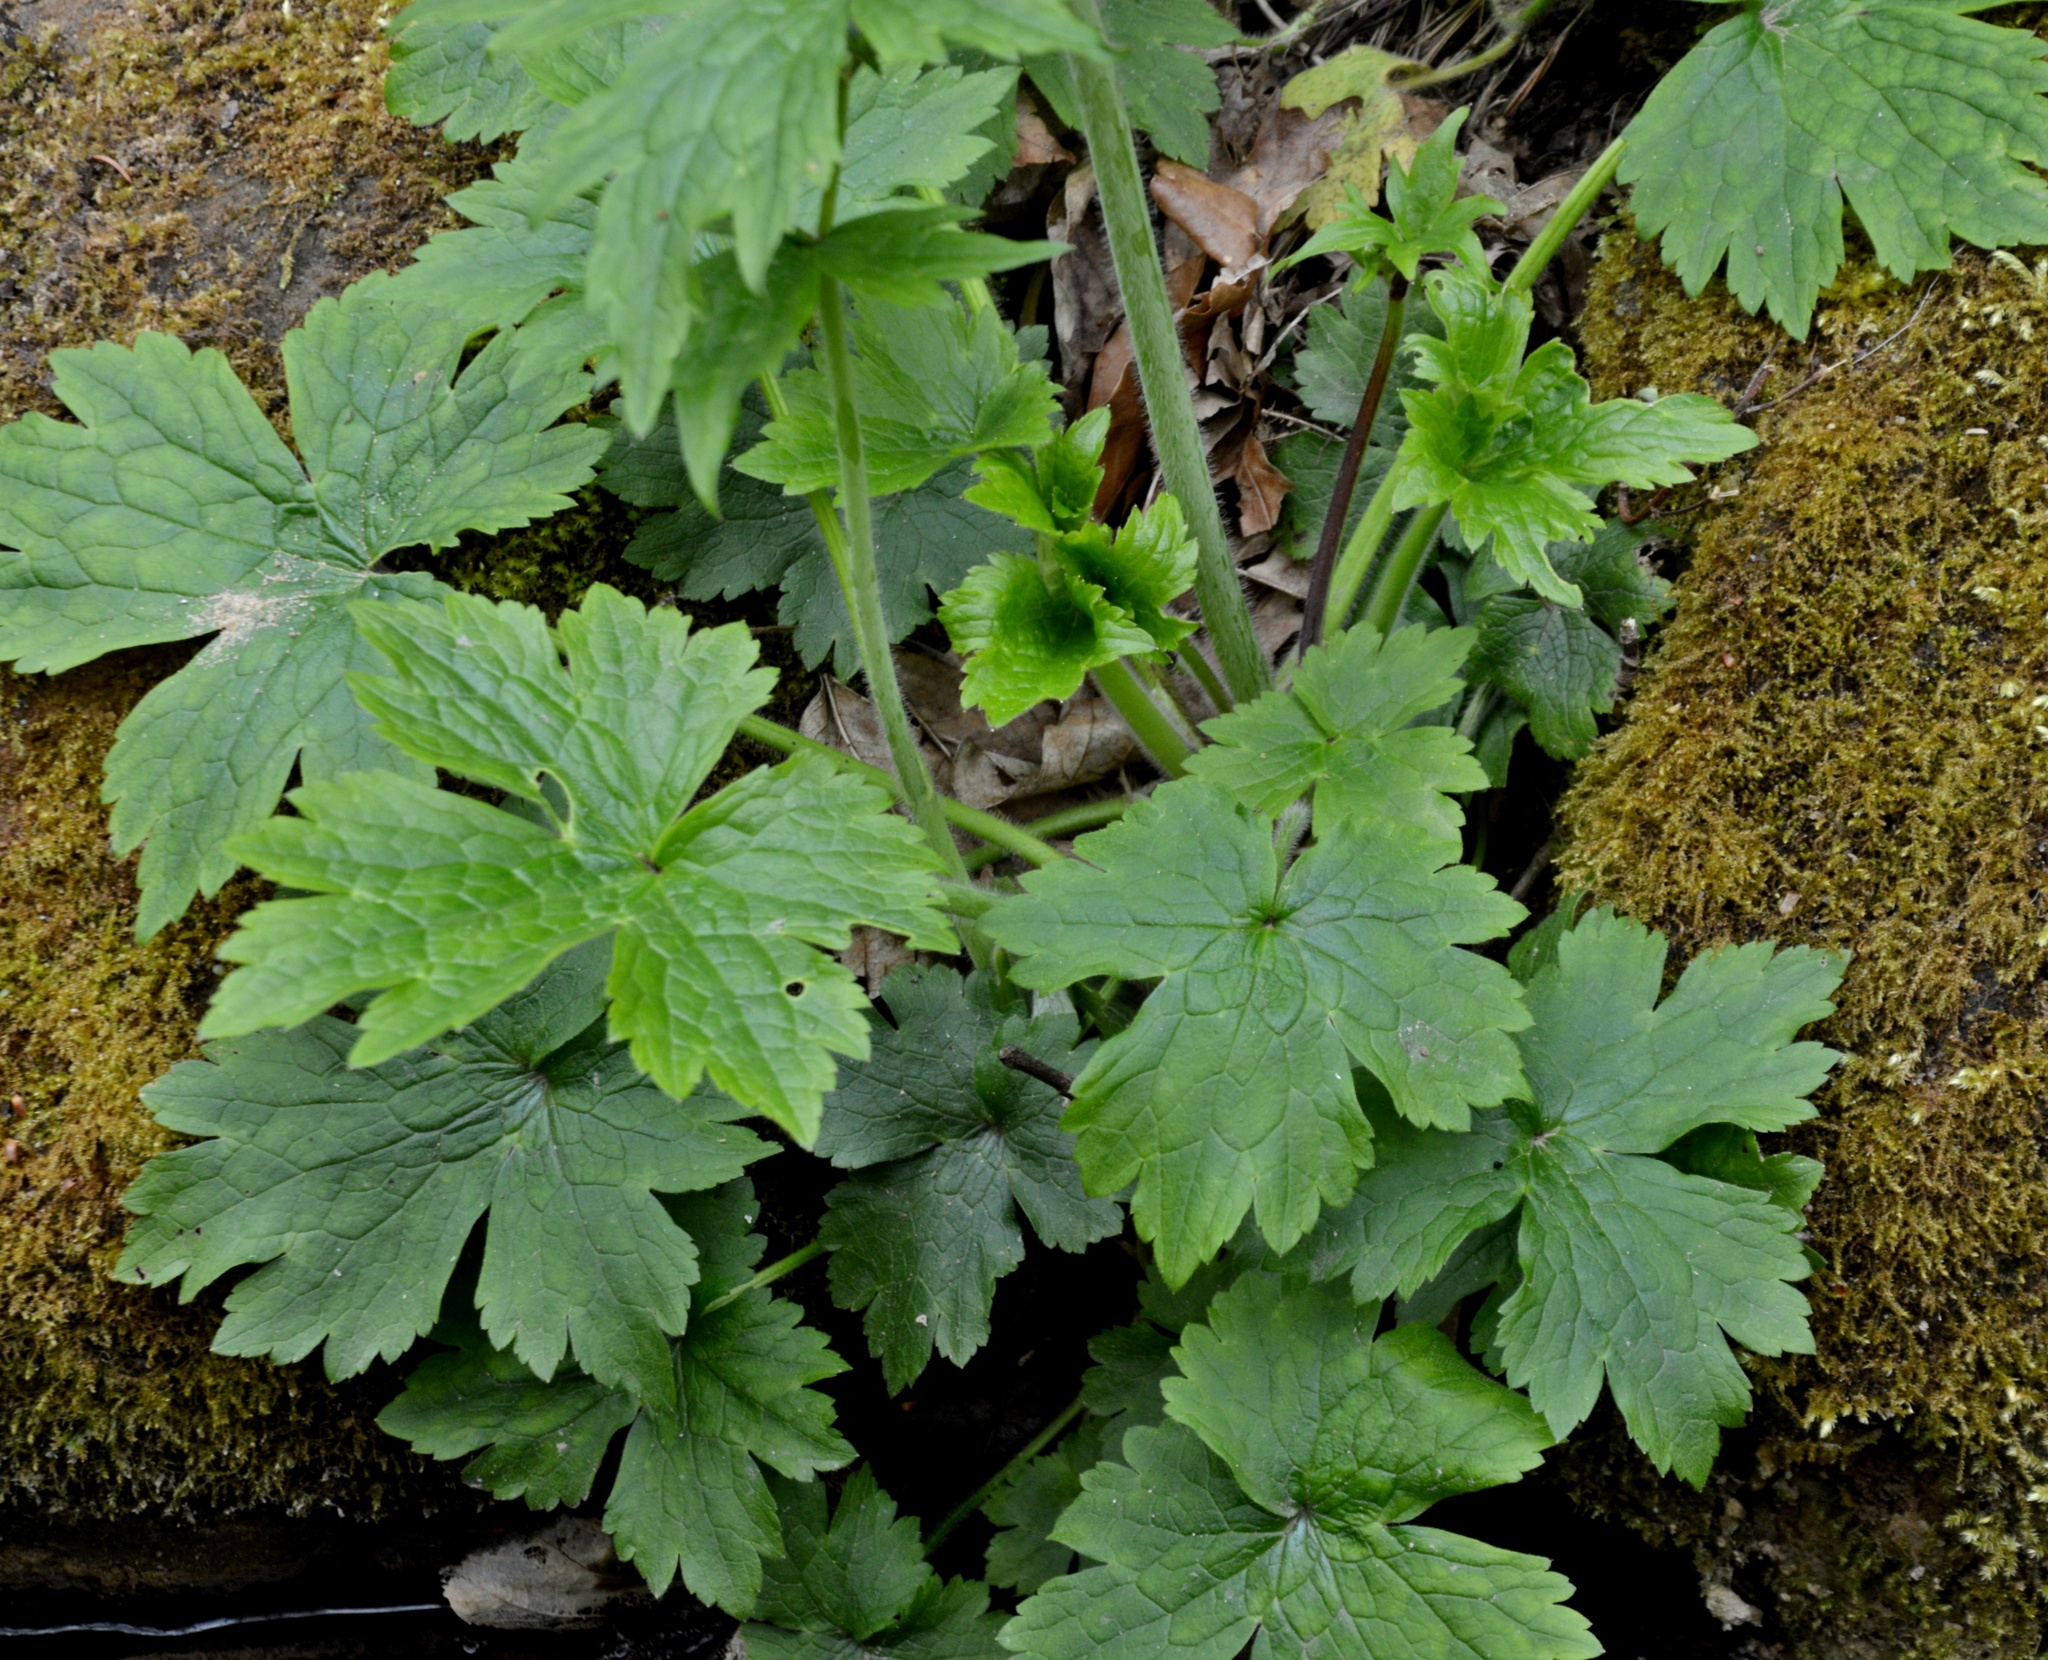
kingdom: Plantae
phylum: Tracheophyta
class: Magnoliopsida
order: Ranunculales
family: Ranunculaceae
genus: Ranunculus
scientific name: Ranunculus lanuginosus
